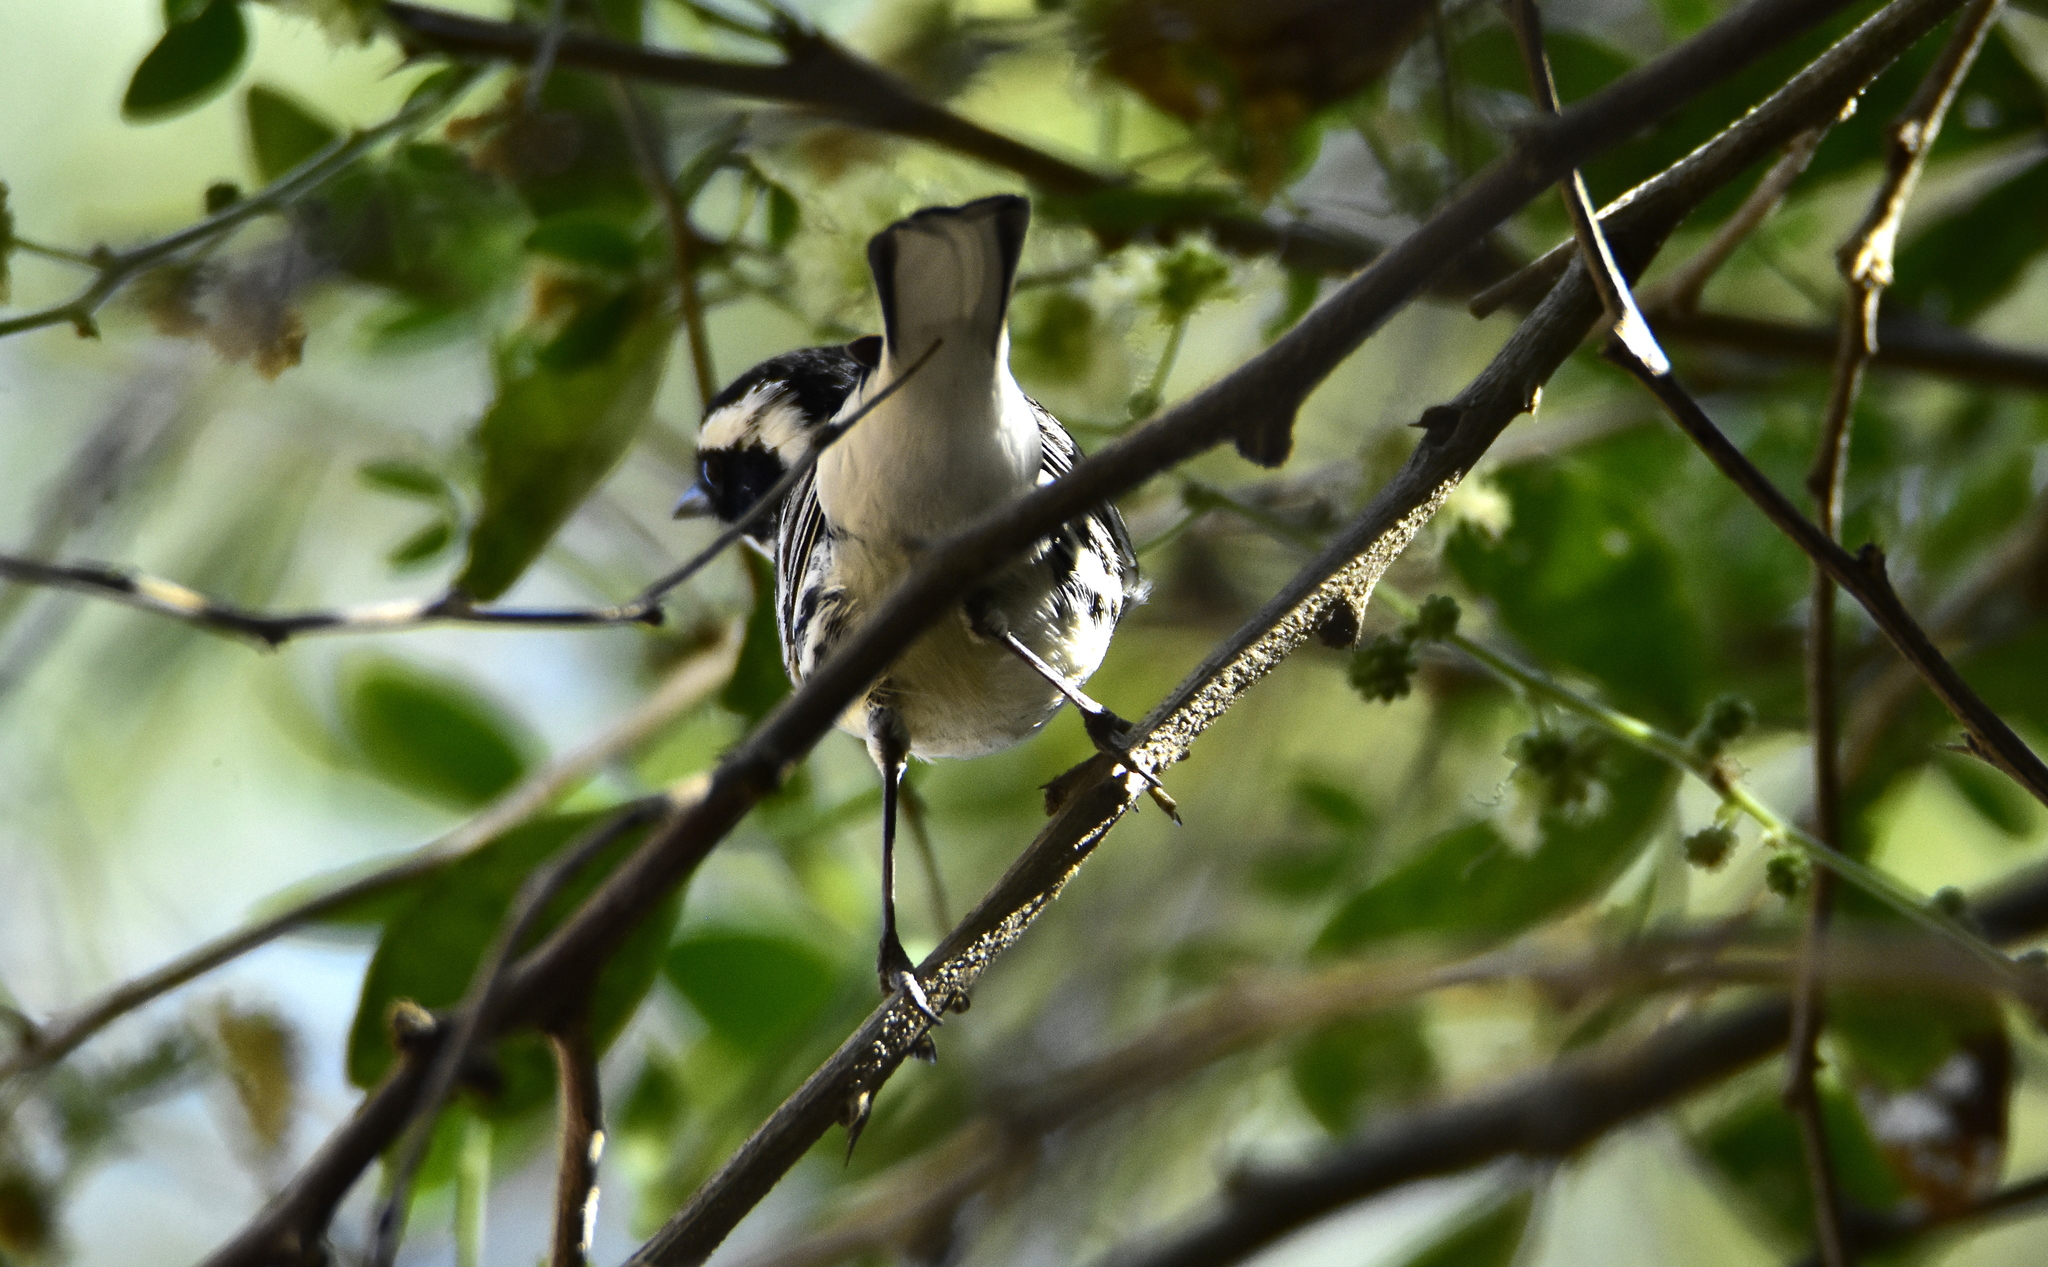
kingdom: Animalia
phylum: Chordata
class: Aves
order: Passeriformes
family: Parulidae
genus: Setophaga
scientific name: Setophaga nigrescens
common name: Black-throated gray warbler
